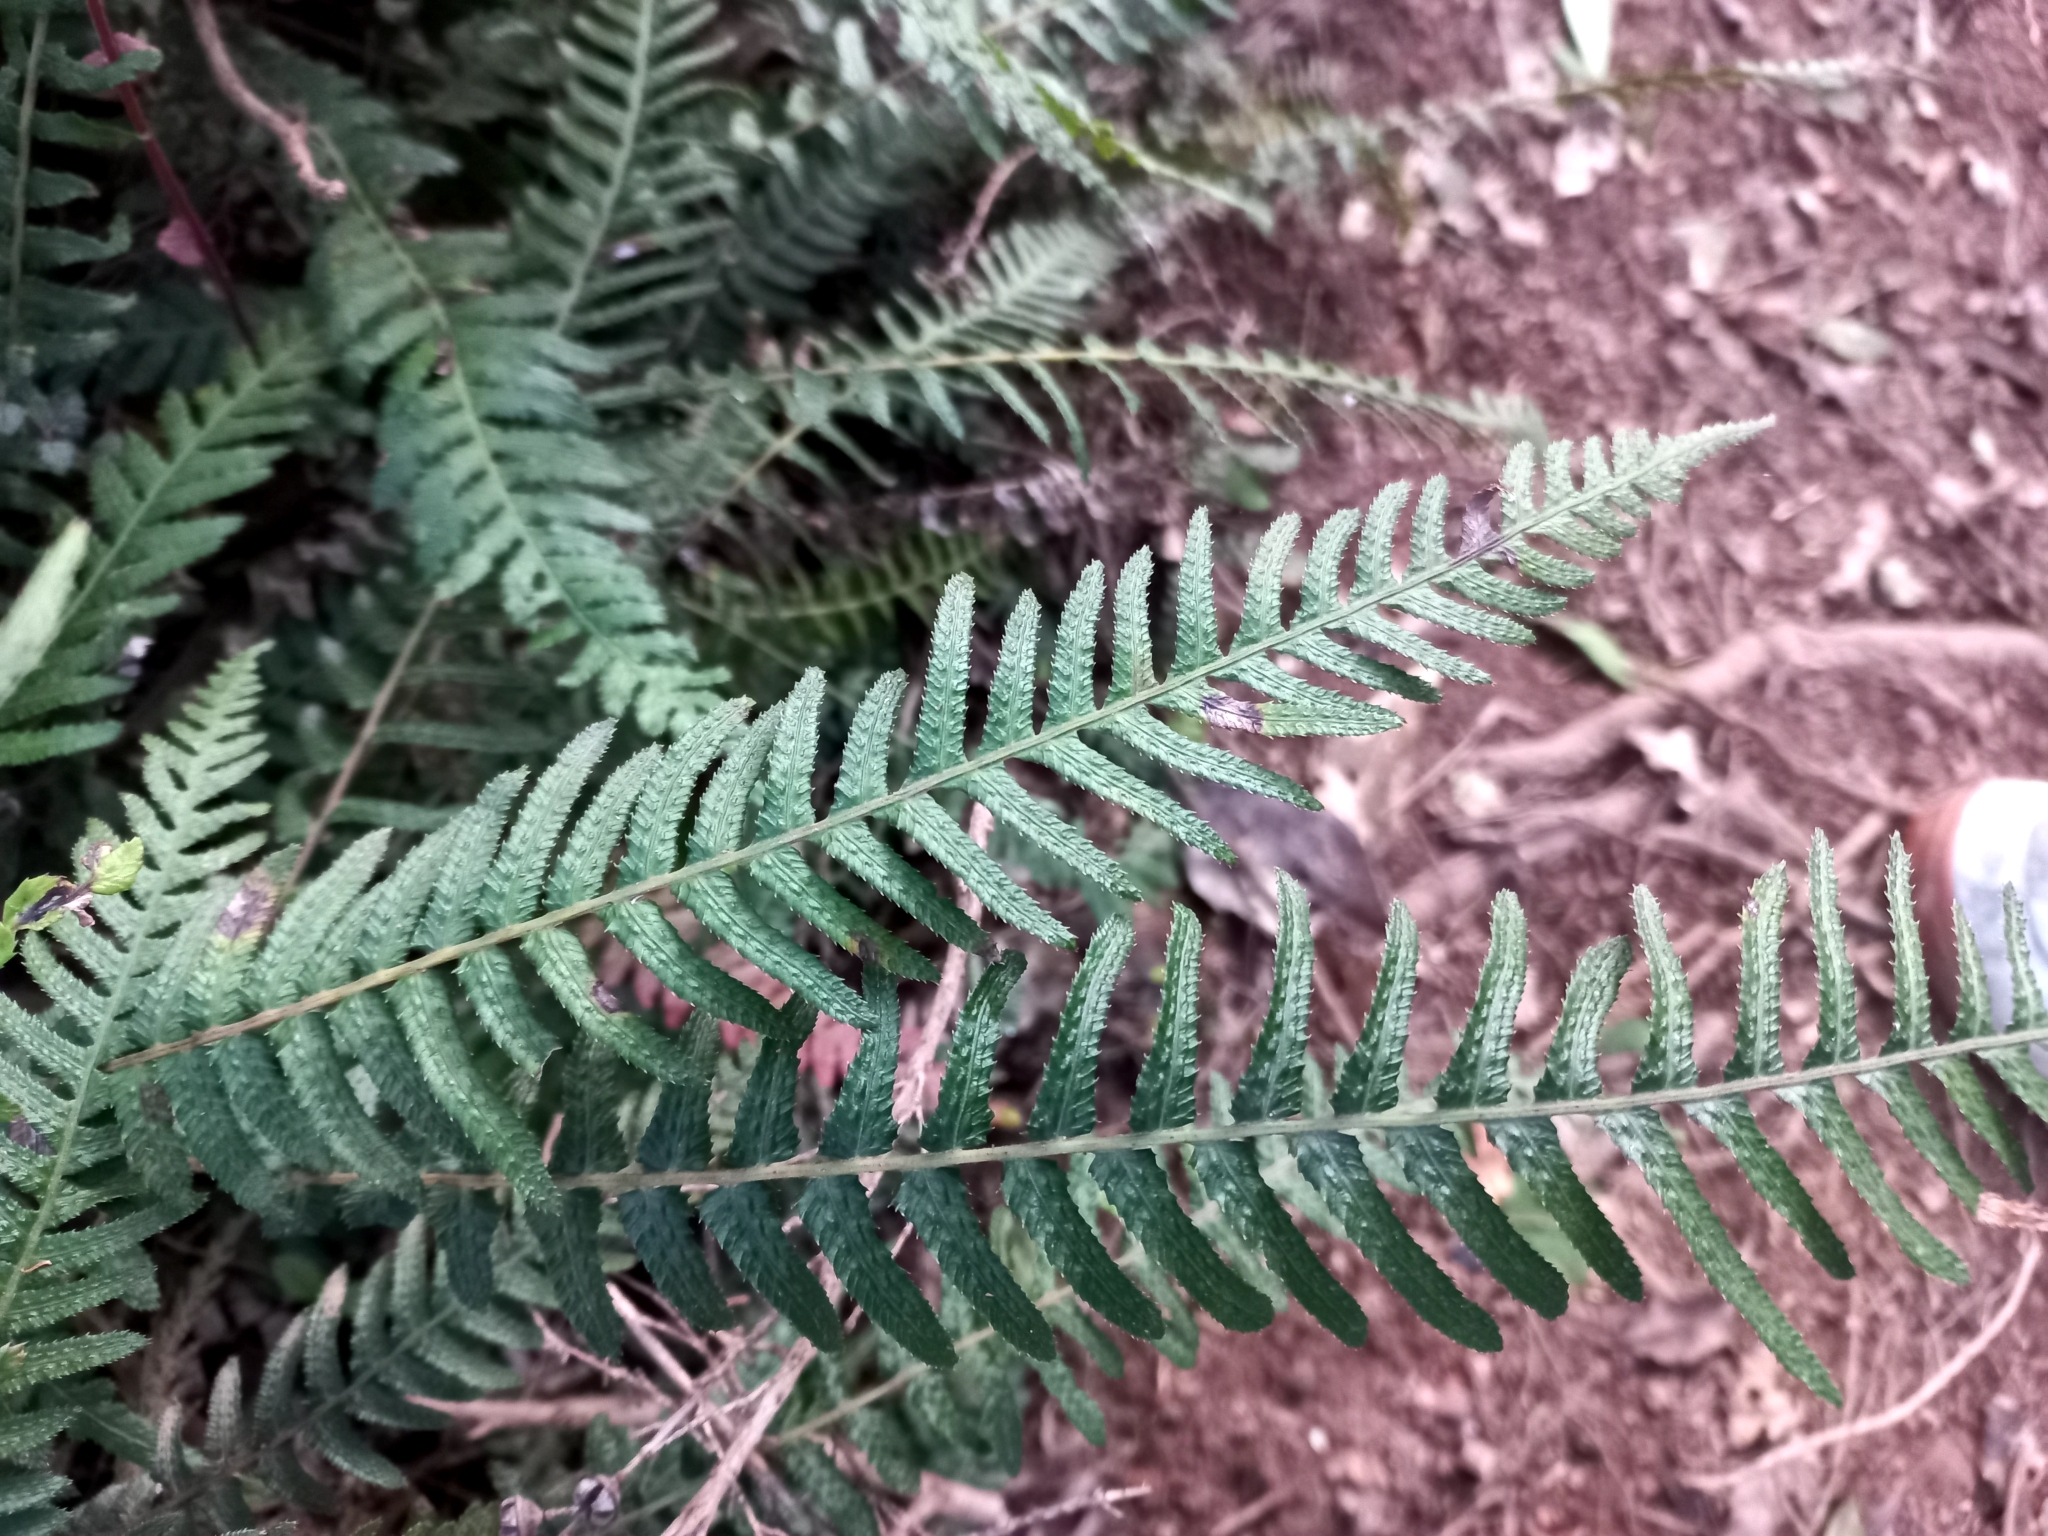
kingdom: Plantae
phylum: Tracheophyta
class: Polypodiopsida
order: Polypodiales
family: Blechnaceae
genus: Doodia
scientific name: Doodia australis
